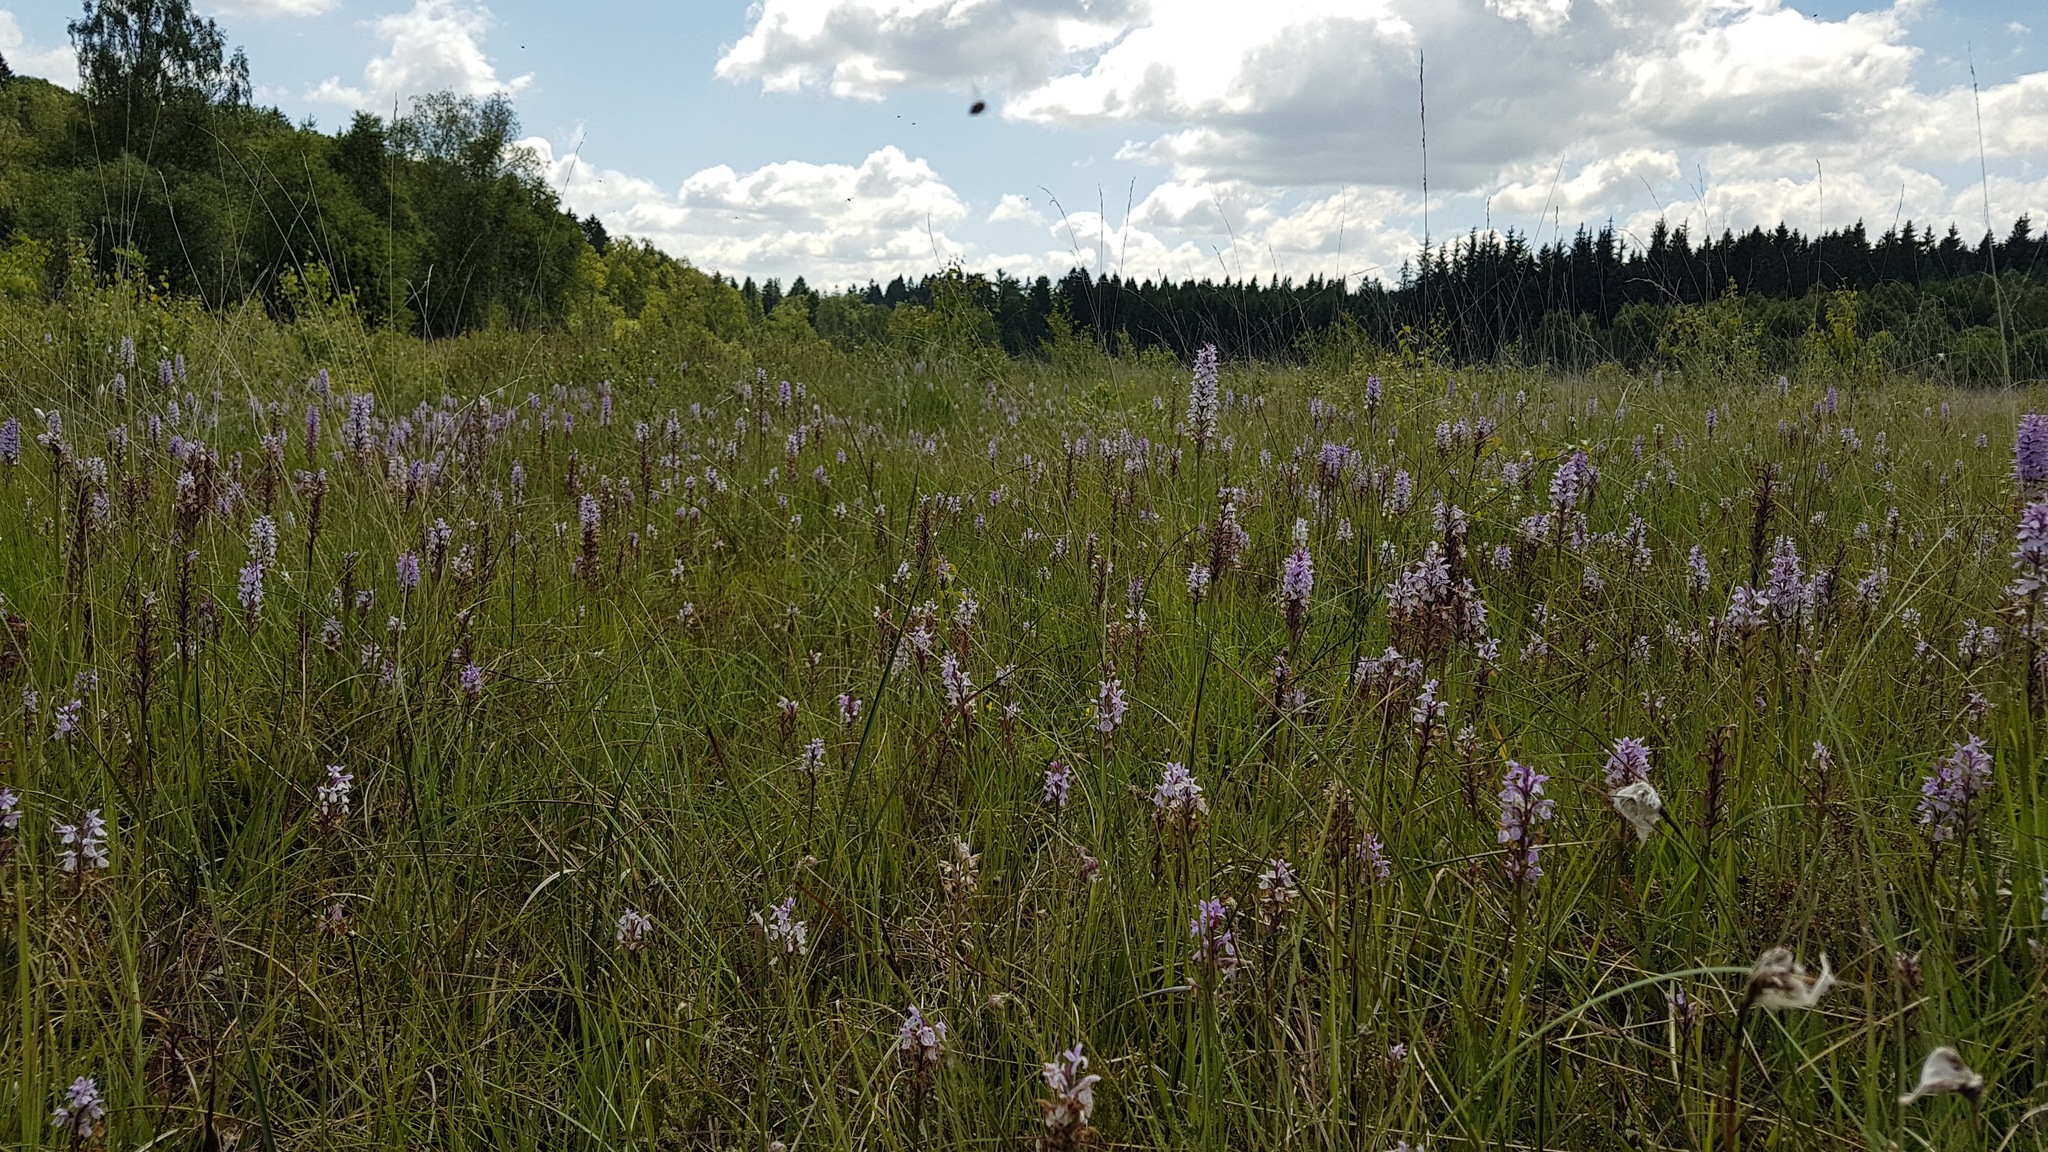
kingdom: Plantae
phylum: Tracheophyta
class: Liliopsida
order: Asparagales
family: Orchidaceae
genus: Dactylorhiza
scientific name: Dactylorhiza maculata
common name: Heath spotted-orchid
